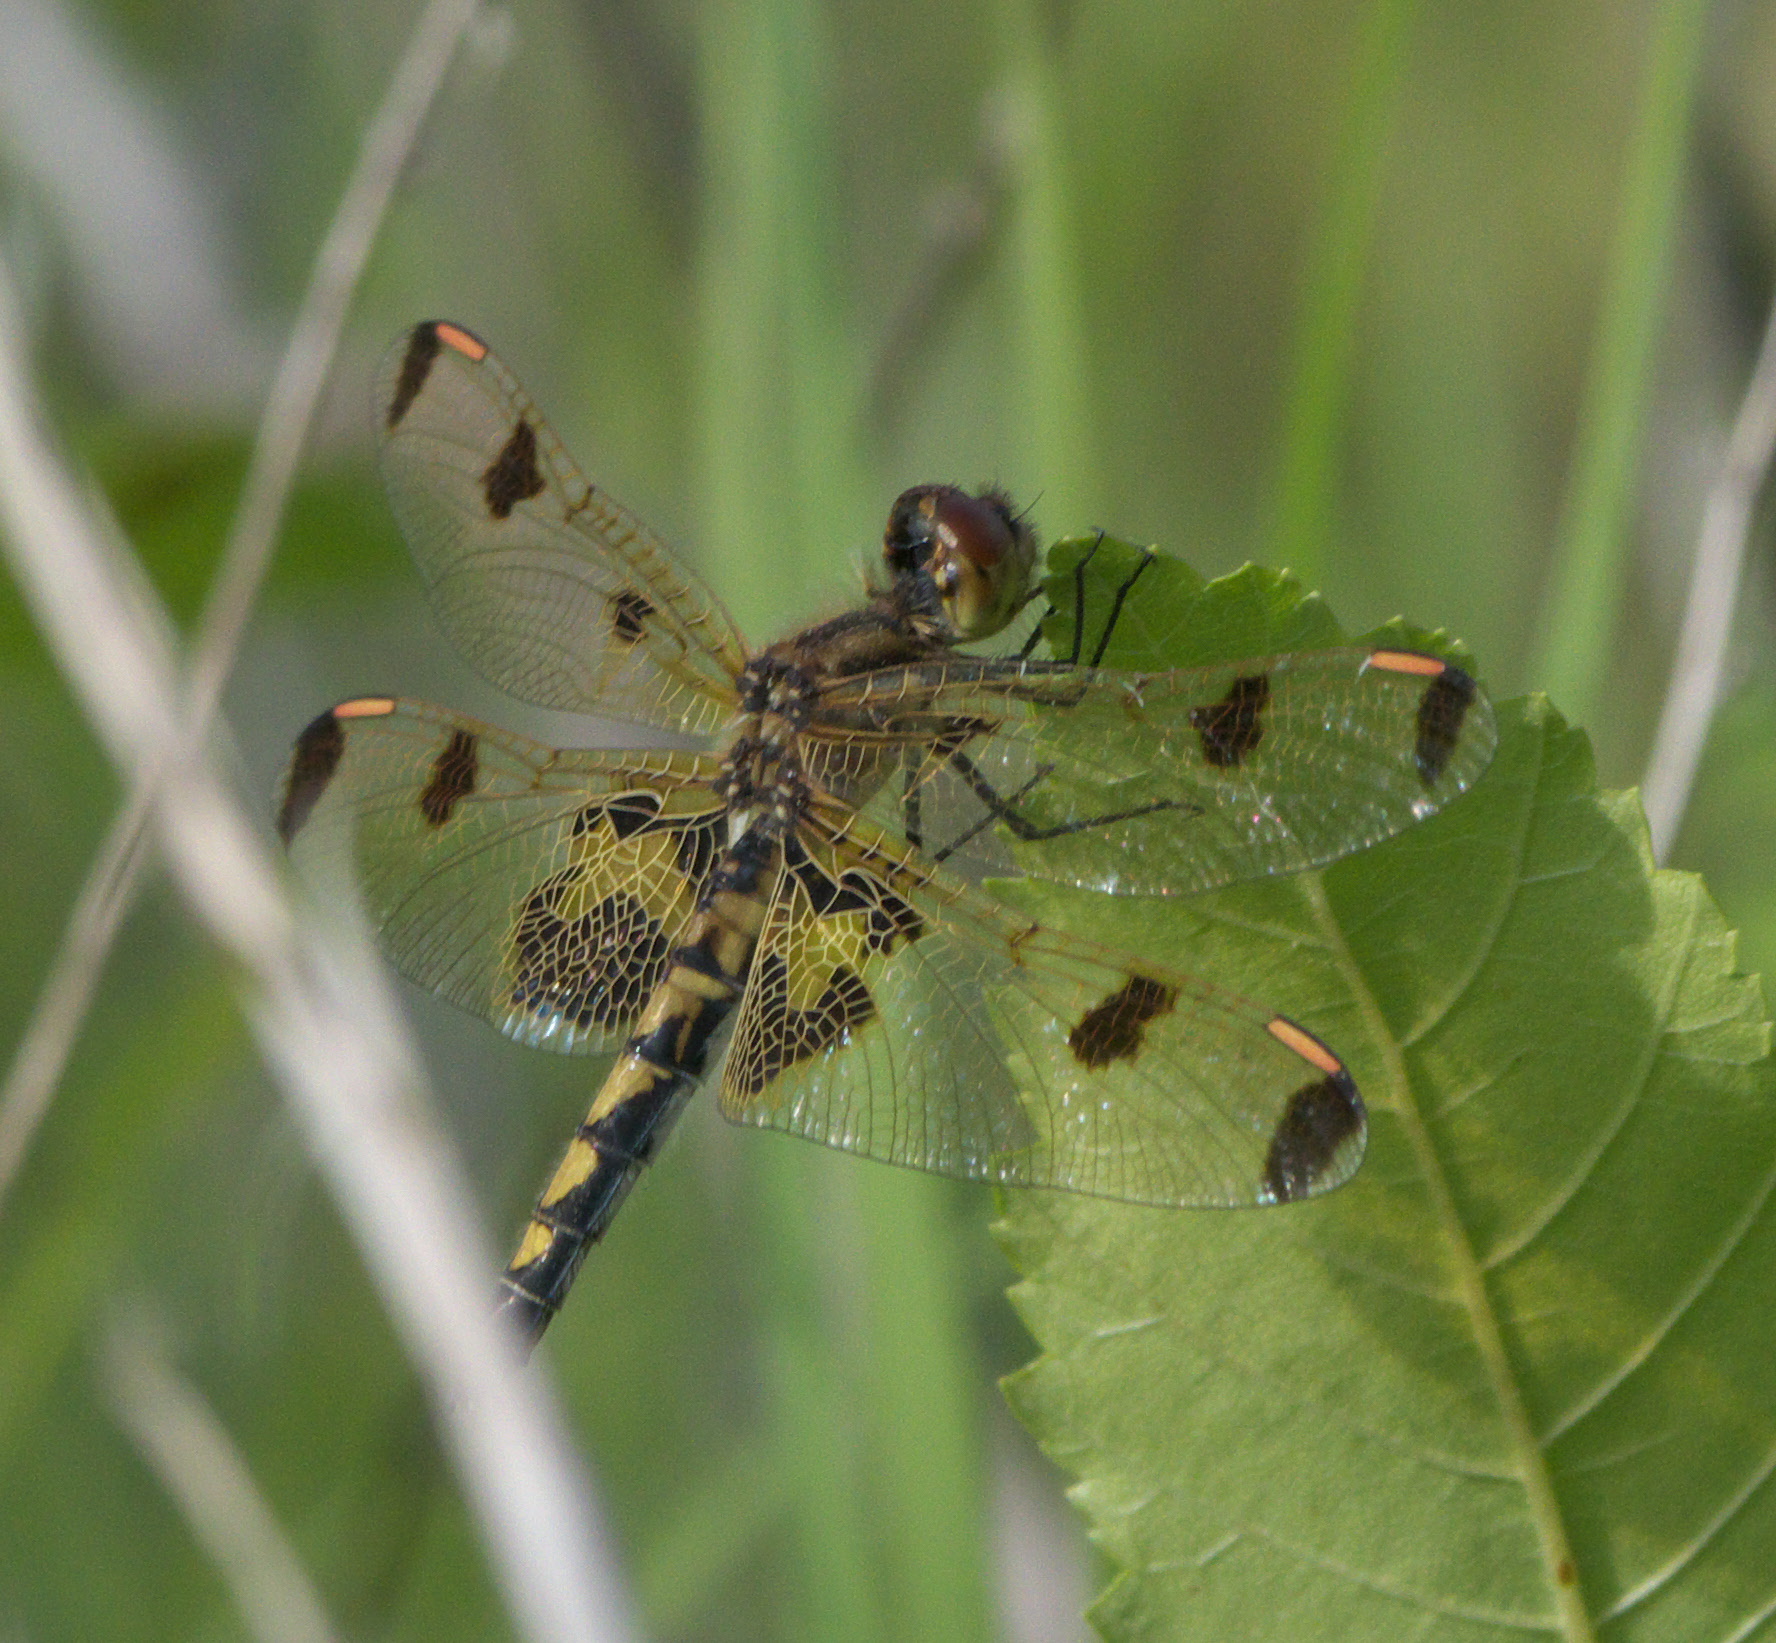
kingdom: Animalia
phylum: Arthropoda
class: Insecta
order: Odonata
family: Libellulidae
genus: Celithemis
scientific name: Celithemis elisa
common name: Calico pennant
